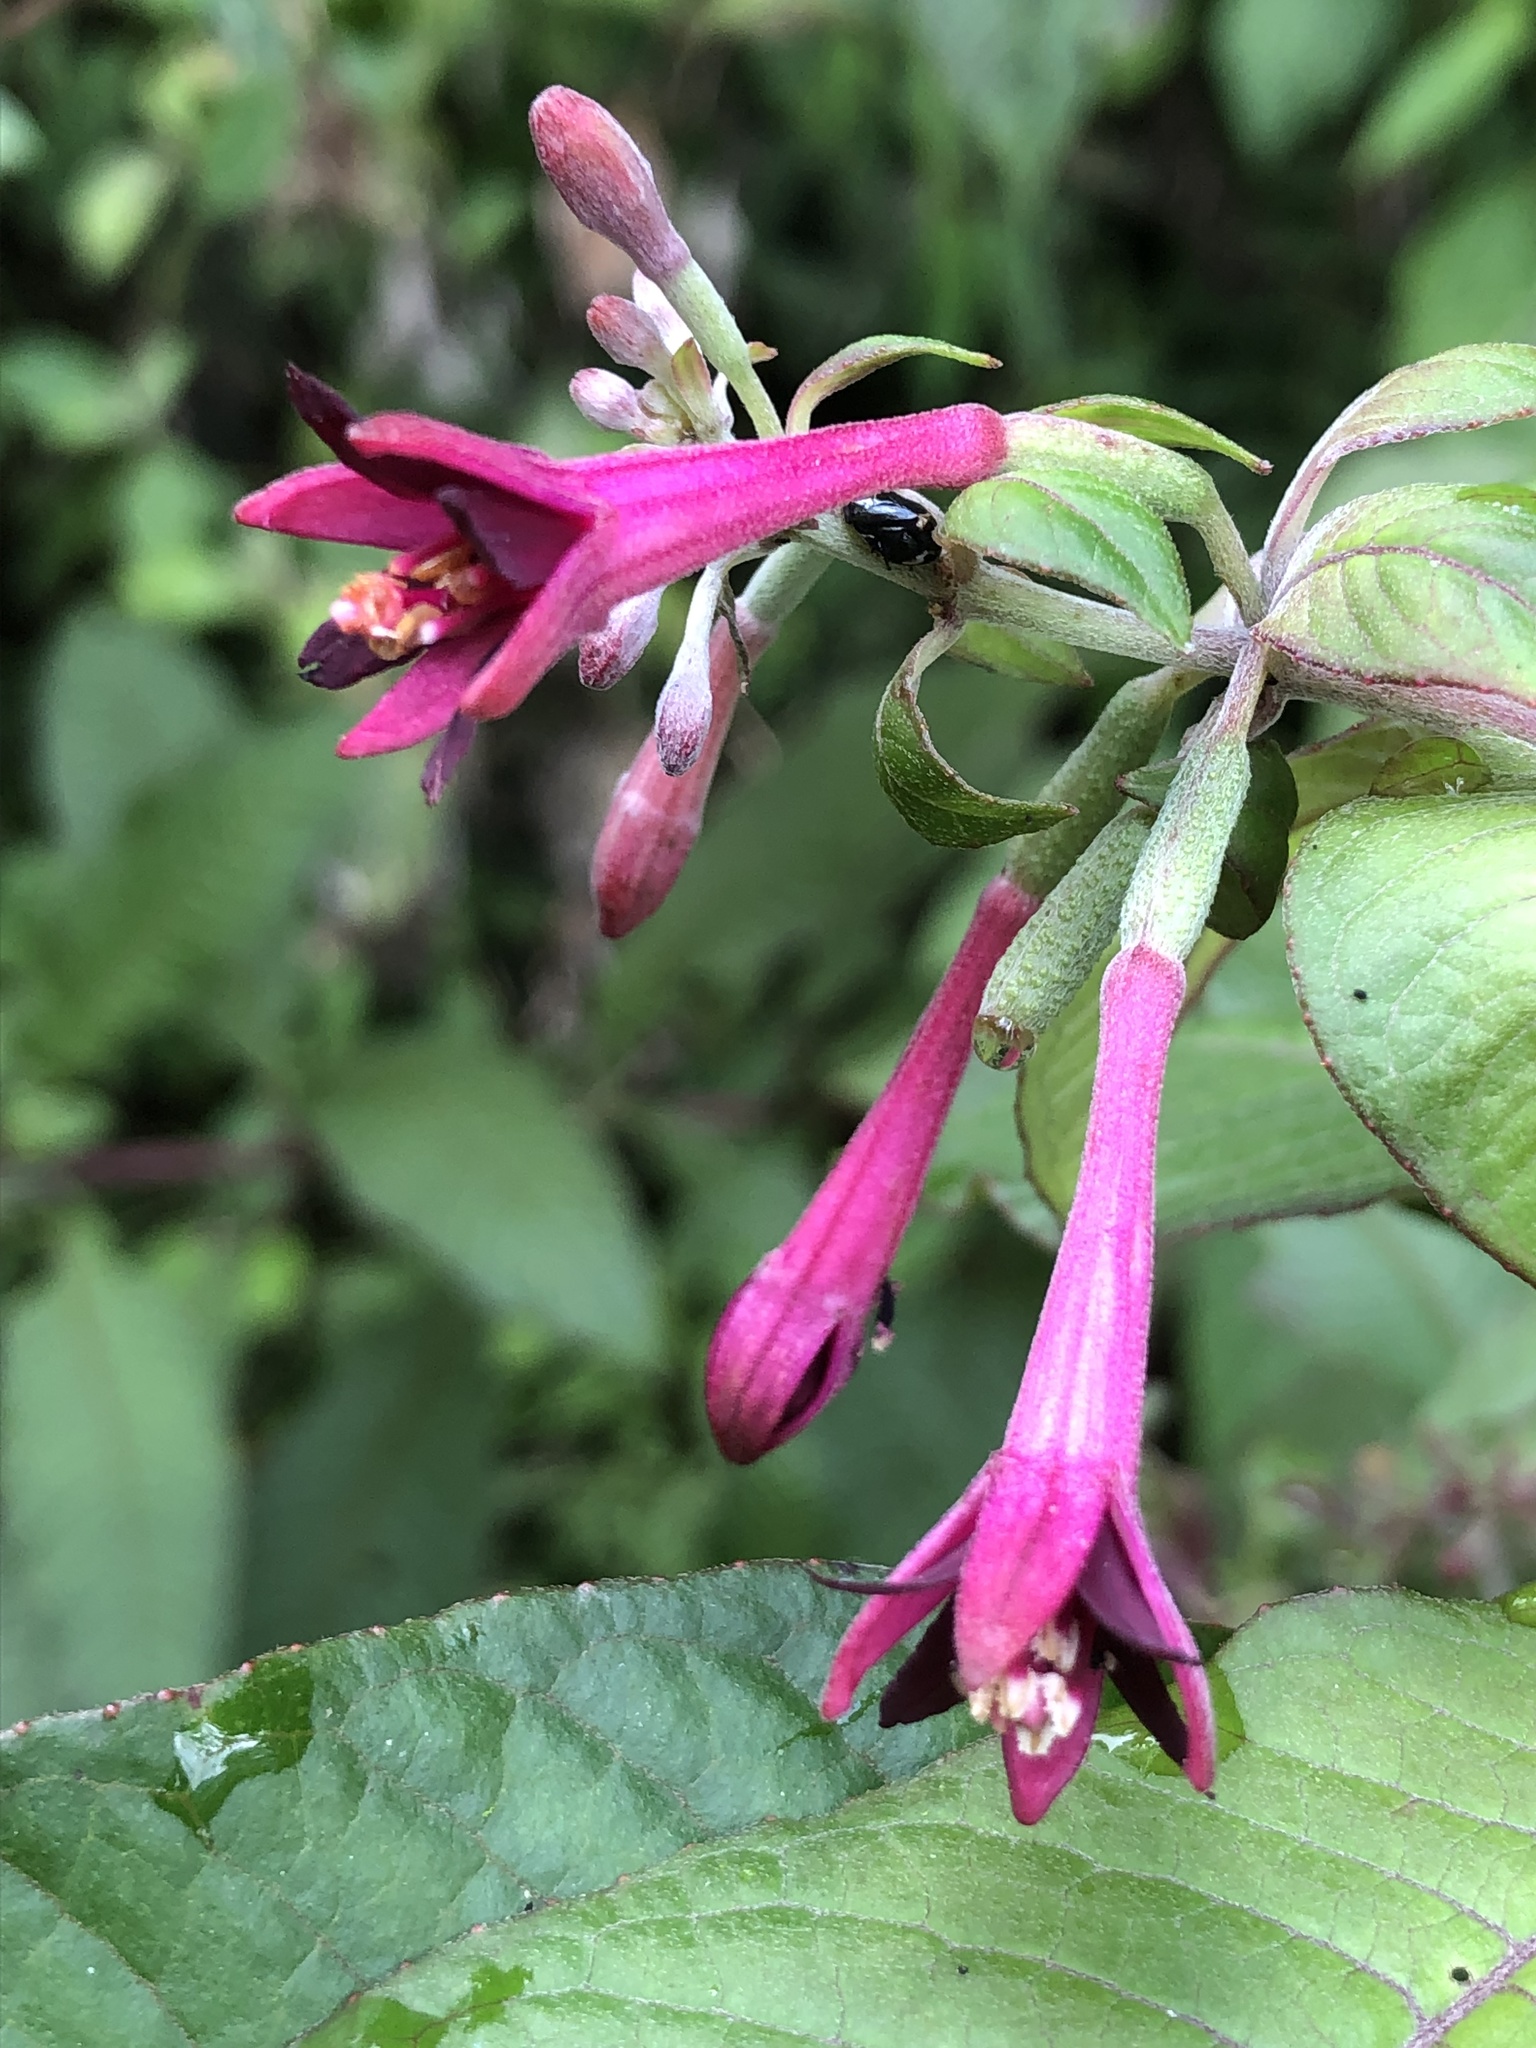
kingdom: Plantae
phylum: Tracheophyta
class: Magnoliopsida
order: Myrtales
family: Onagraceae
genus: Fuchsia
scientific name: Fuchsia nigricans
